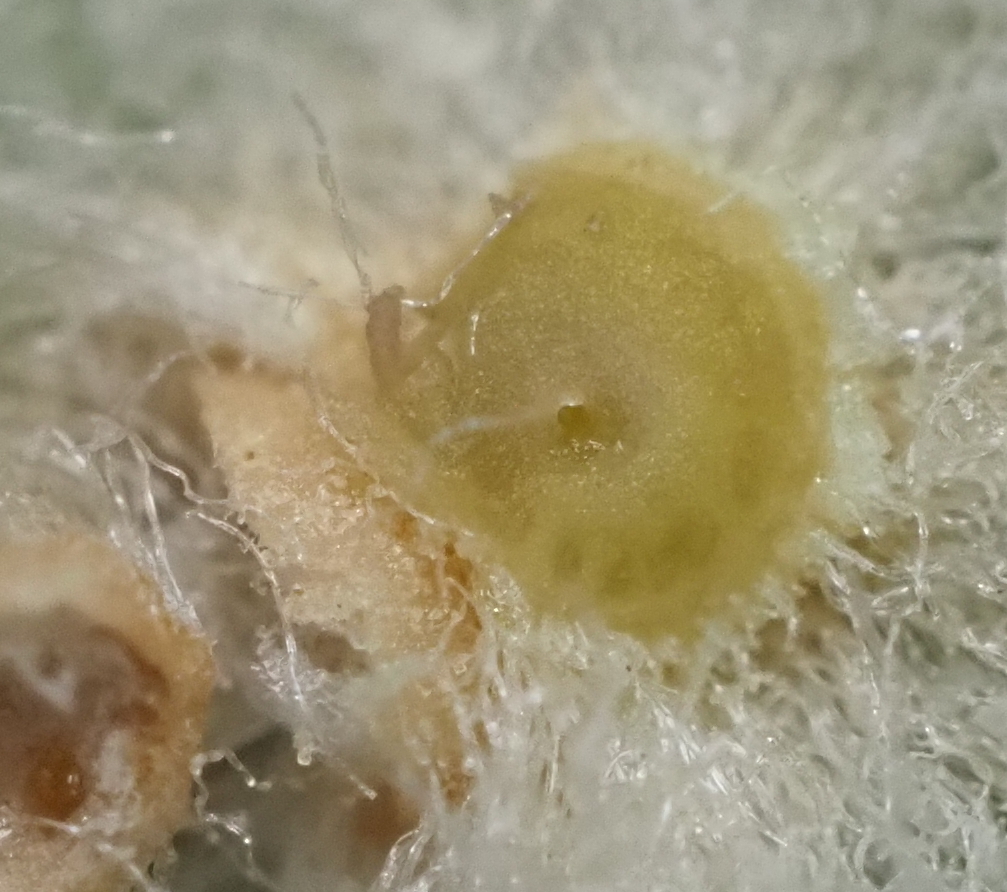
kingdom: Animalia
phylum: Arthropoda
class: Insecta
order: Hymenoptera
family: Cynipidae
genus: Andricus
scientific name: Andricus Druon quercuslanigerum
